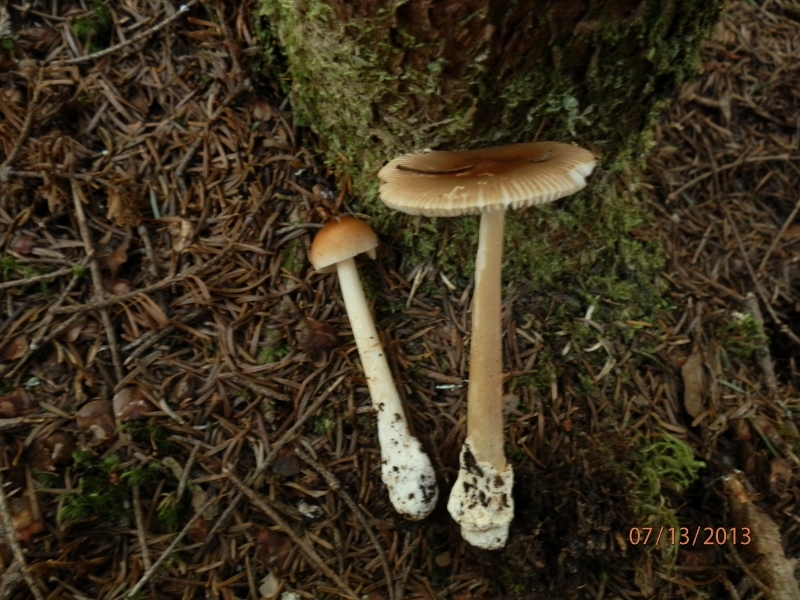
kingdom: Fungi
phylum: Basidiomycota
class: Agaricomycetes
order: Agaricales
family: Amanitaceae
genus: Amanita
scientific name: Amanita fulva
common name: Tawny grisette
